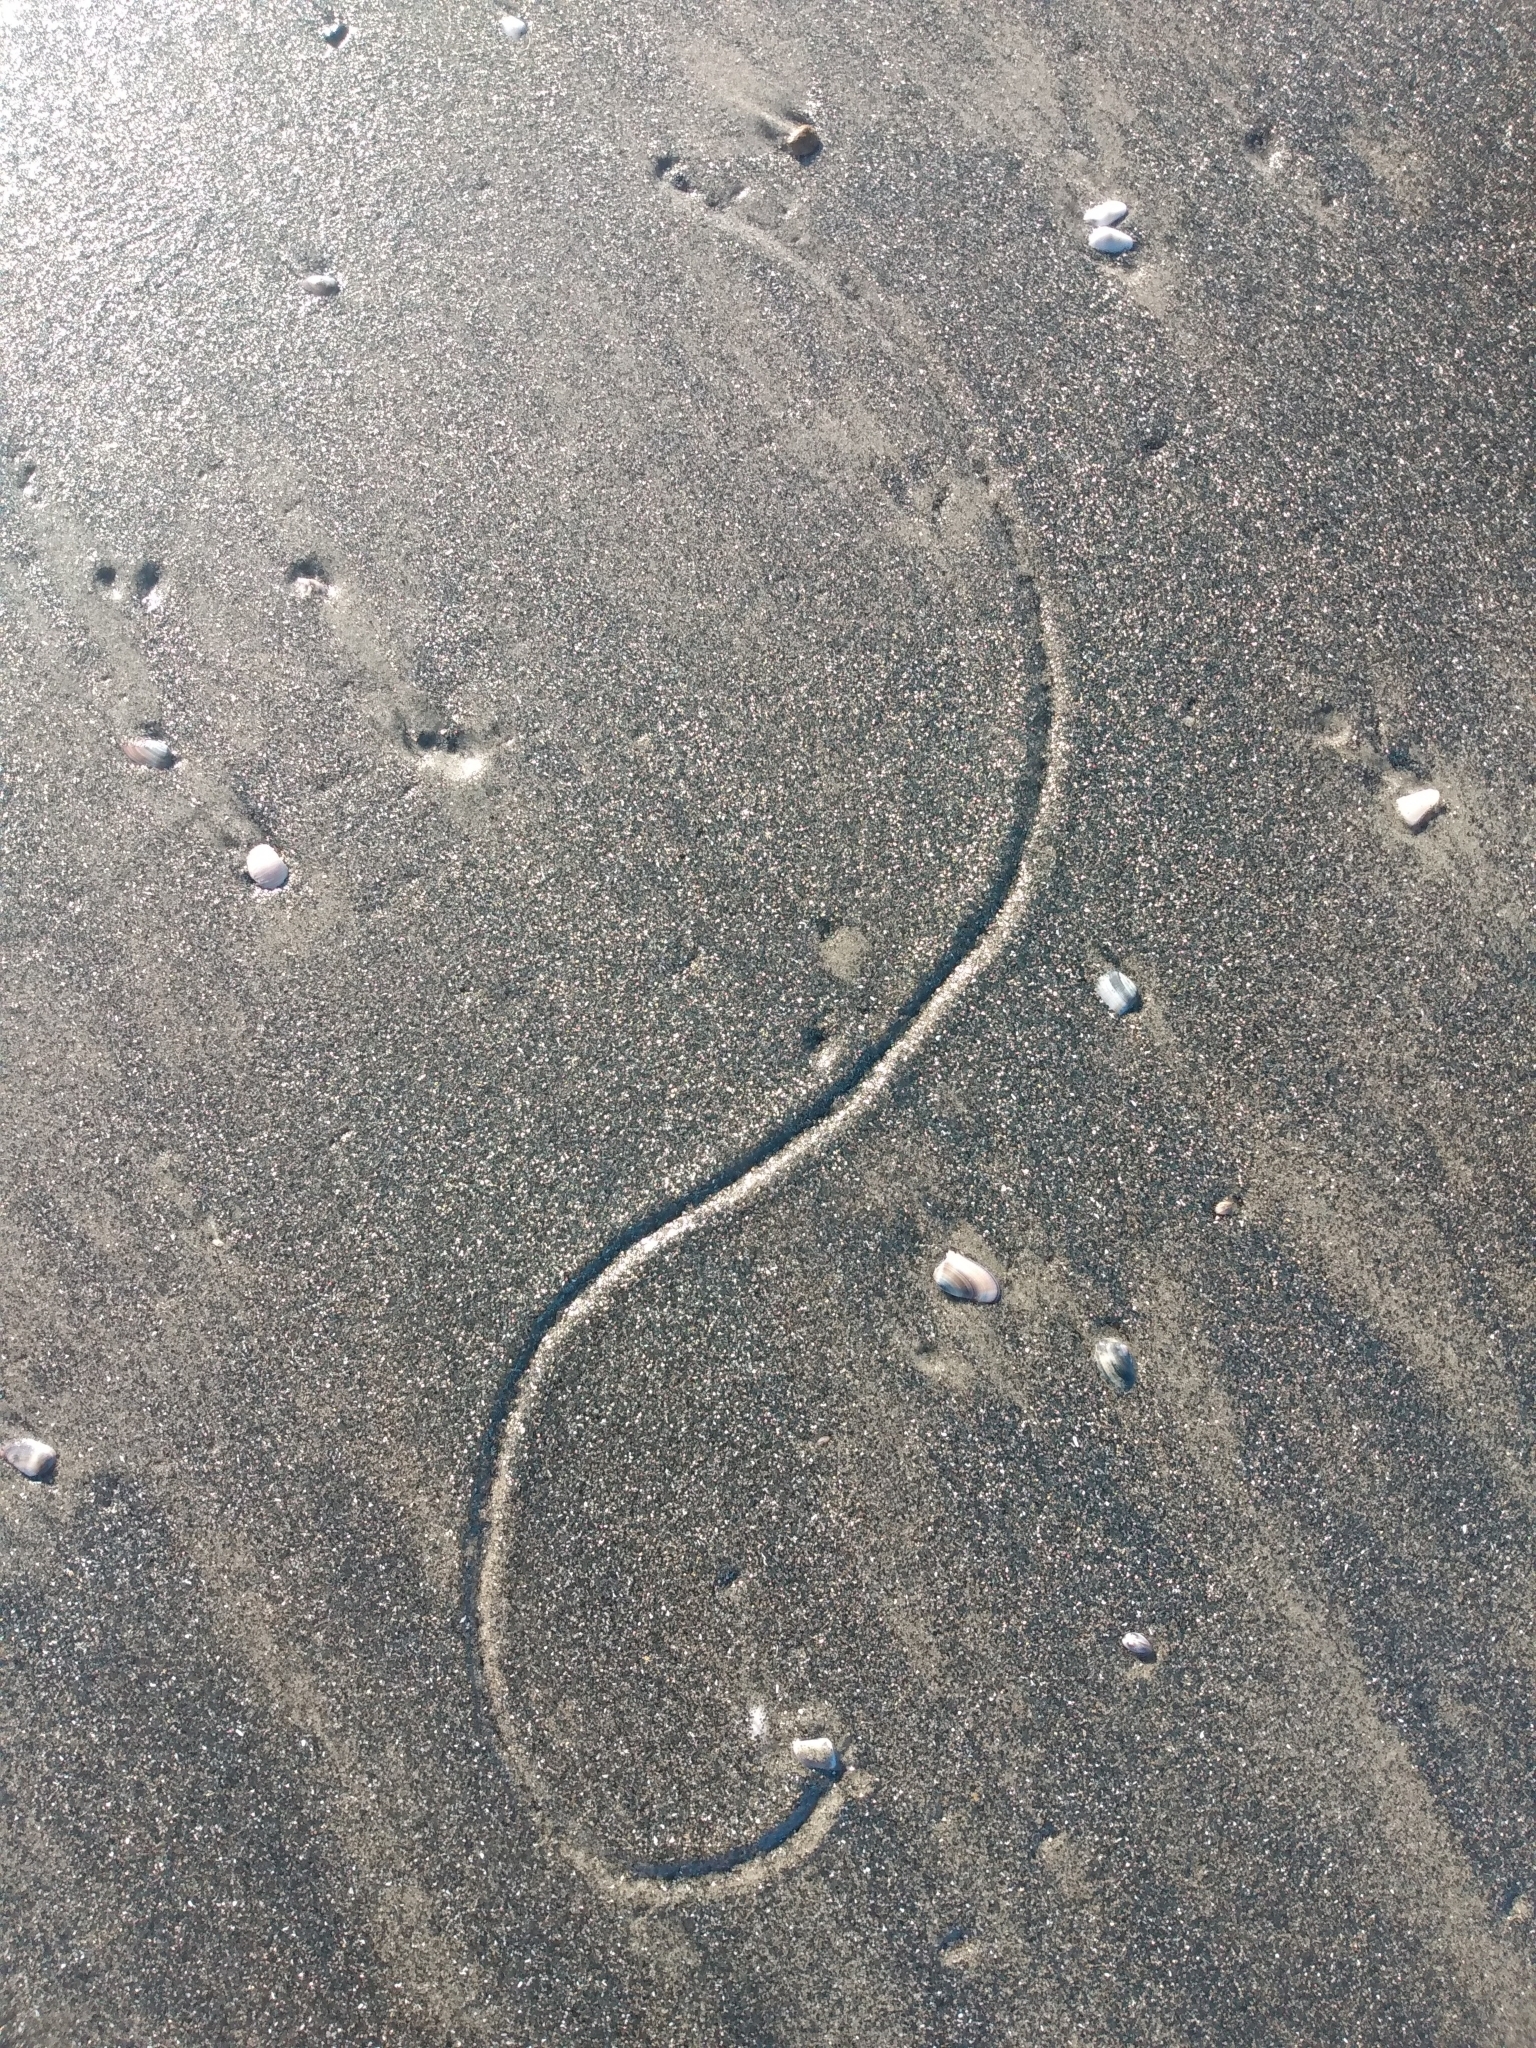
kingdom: Animalia
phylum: Mollusca
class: Bivalvia
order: Cardiida
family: Donacidae
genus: Donax
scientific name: Donax gouldii
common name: Gould beanclam
